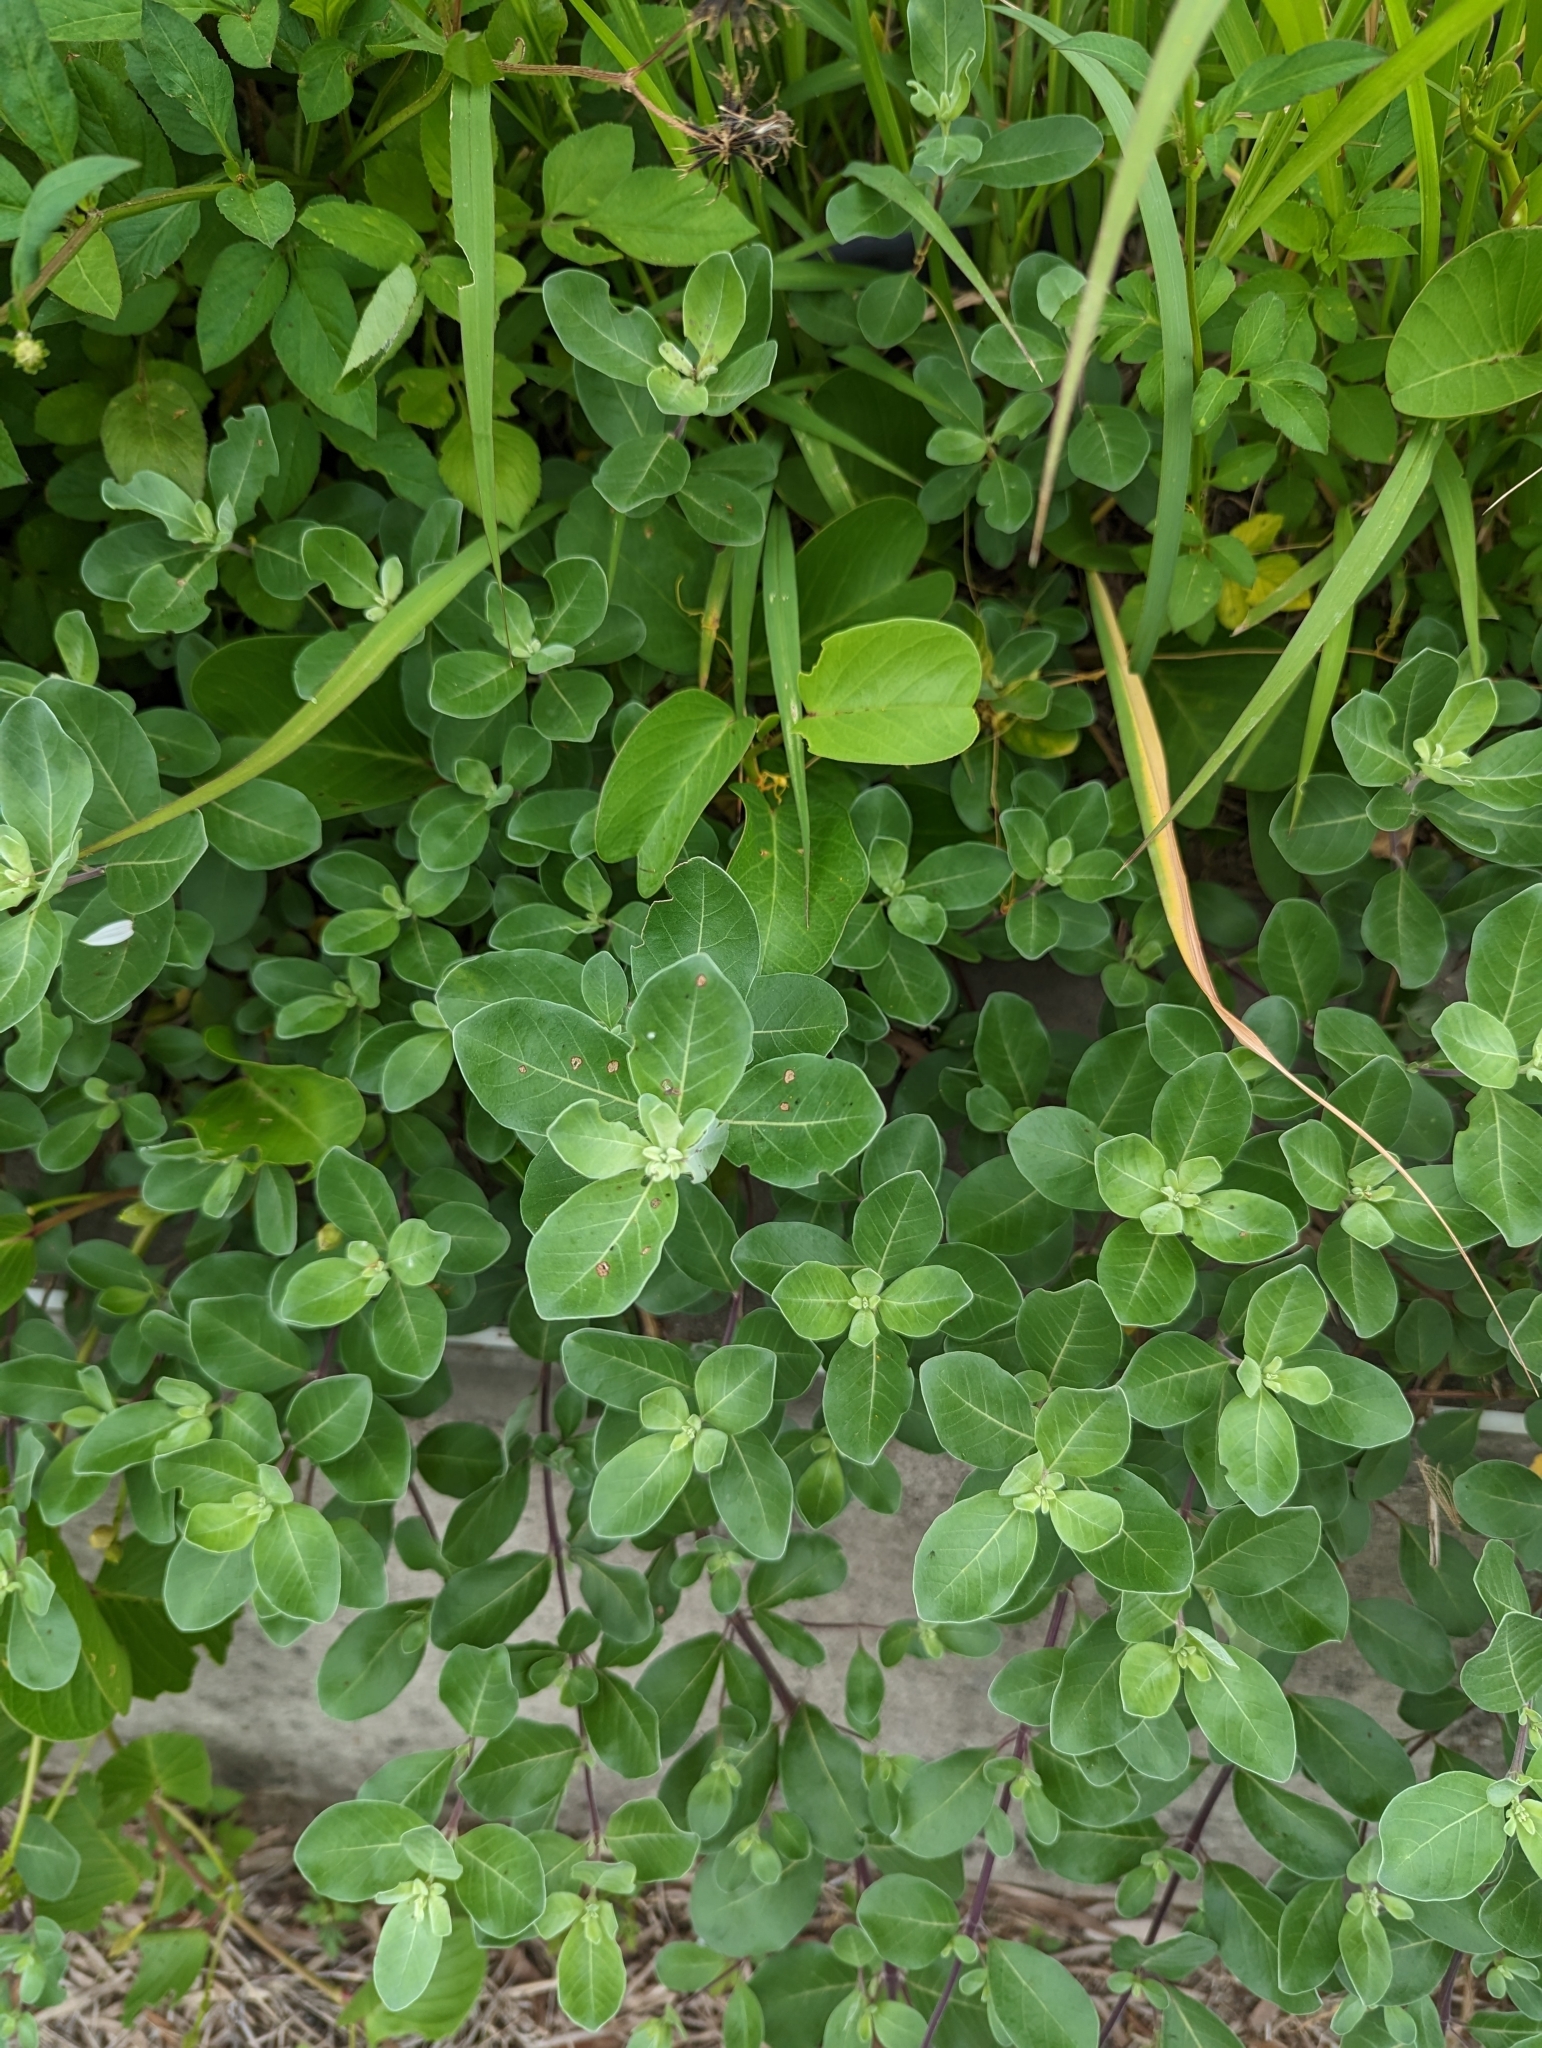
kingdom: Plantae
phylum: Tracheophyta
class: Magnoliopsida
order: Lamiales
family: Lamiaceae
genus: Vitex
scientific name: Vitex rotundifolia
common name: Beach vitex
